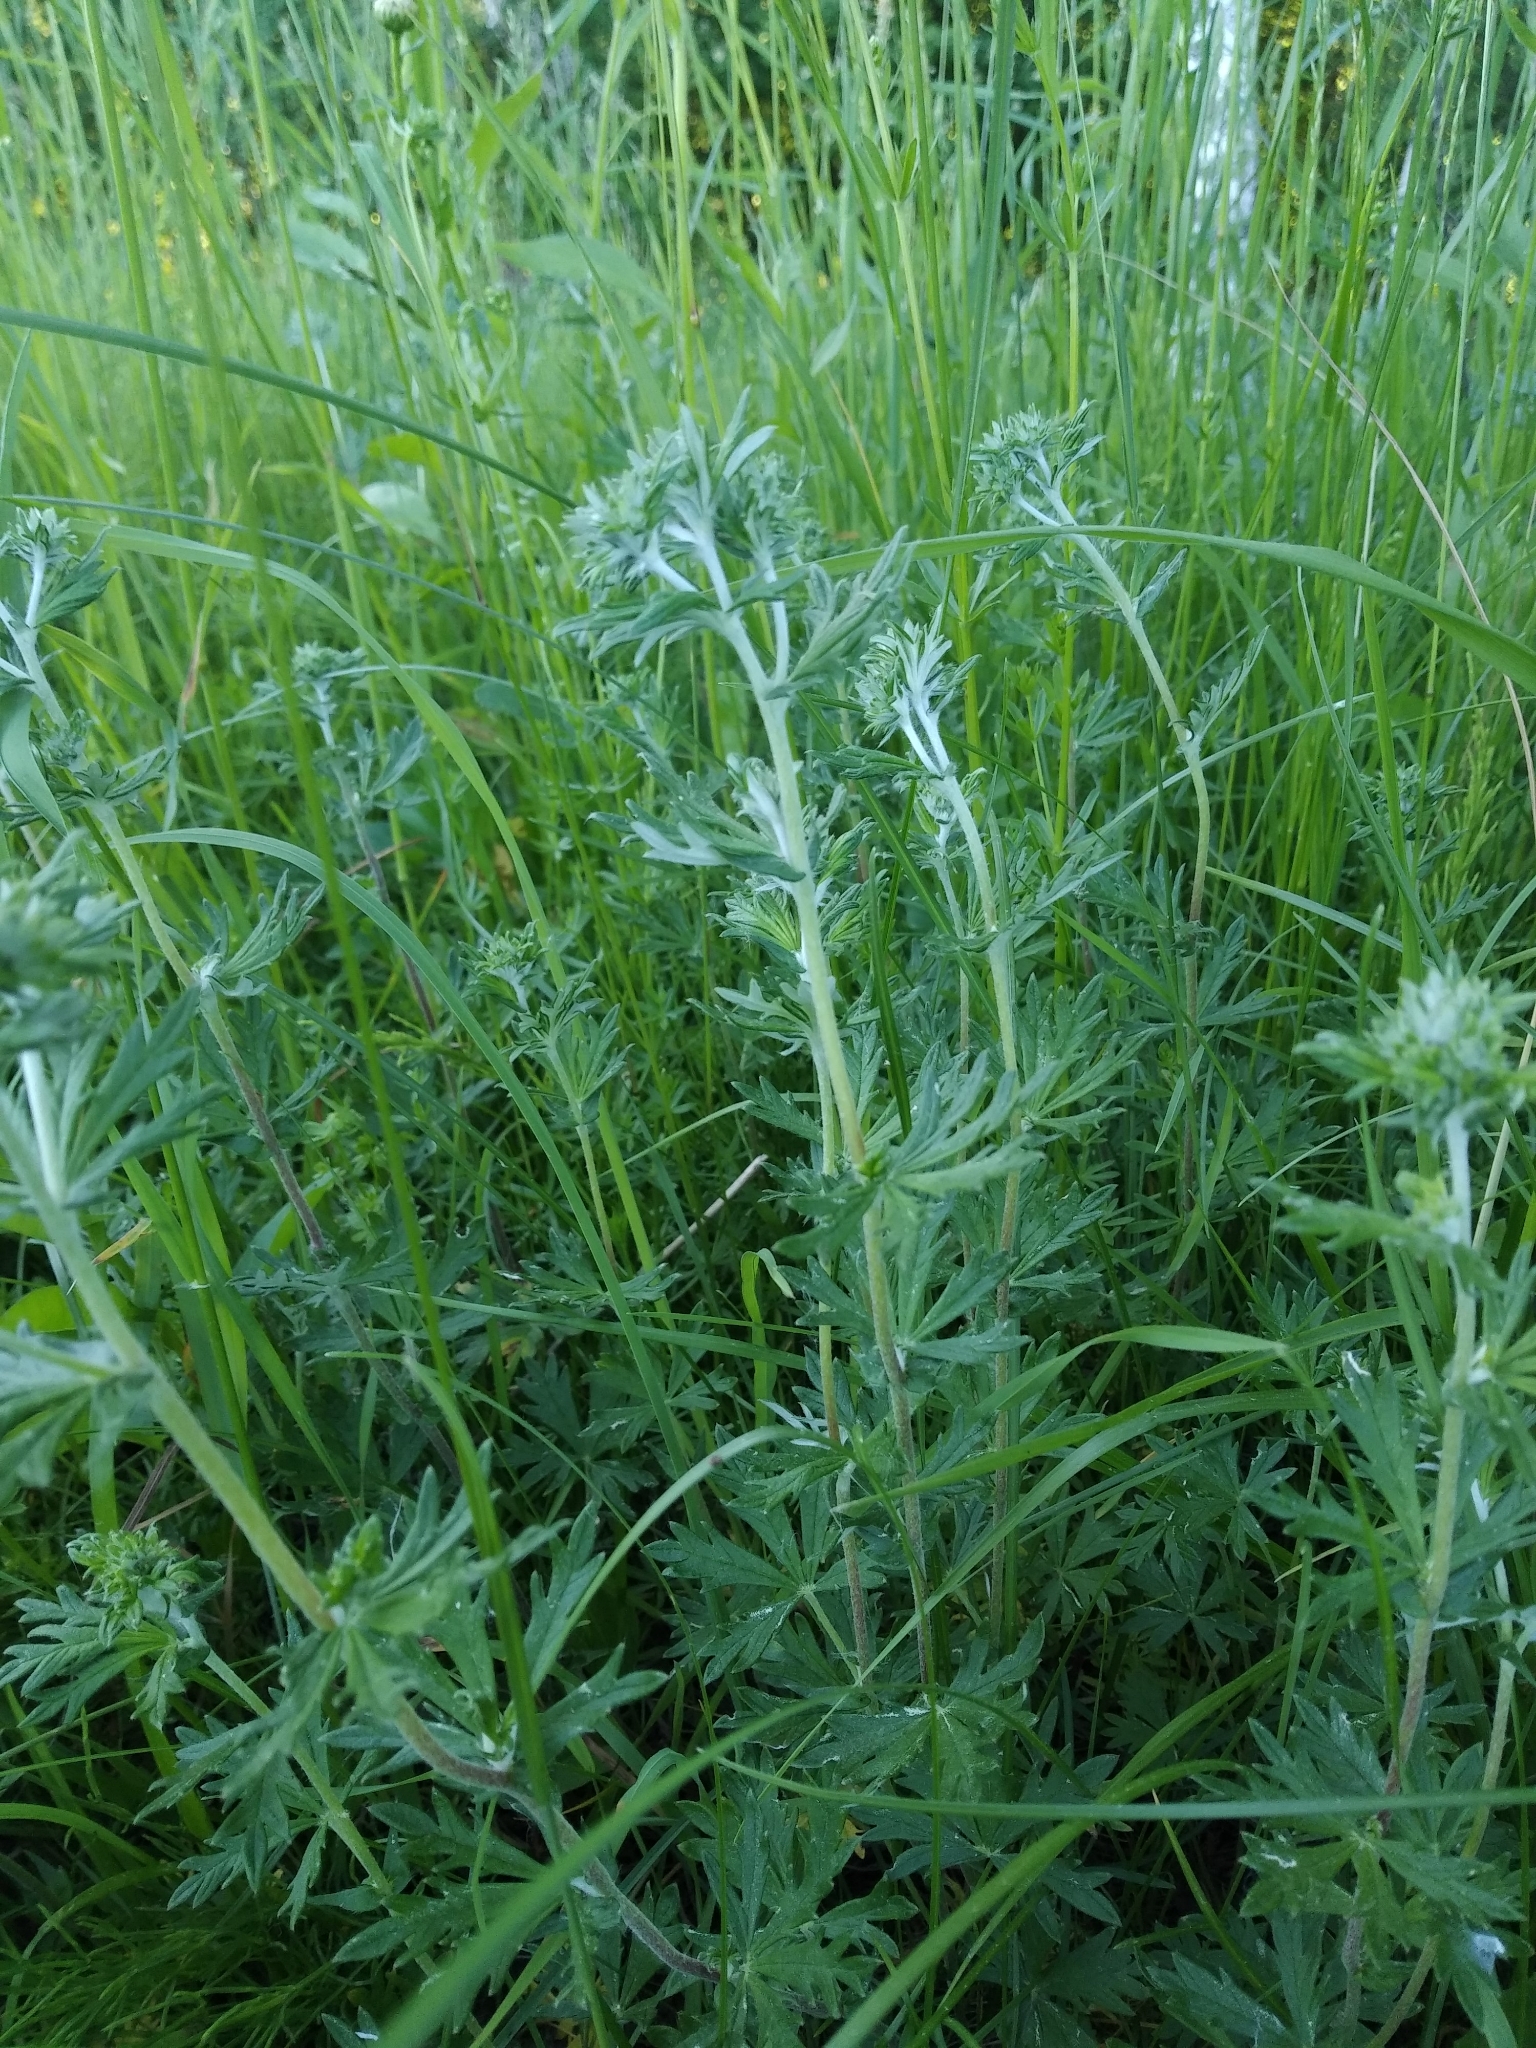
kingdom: Plantae
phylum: Tracheophyta
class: Magnoliopsida
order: Rosales
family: Rosaceae
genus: Potentilla
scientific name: Potentilla argentea
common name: Hoary cinquefoil
